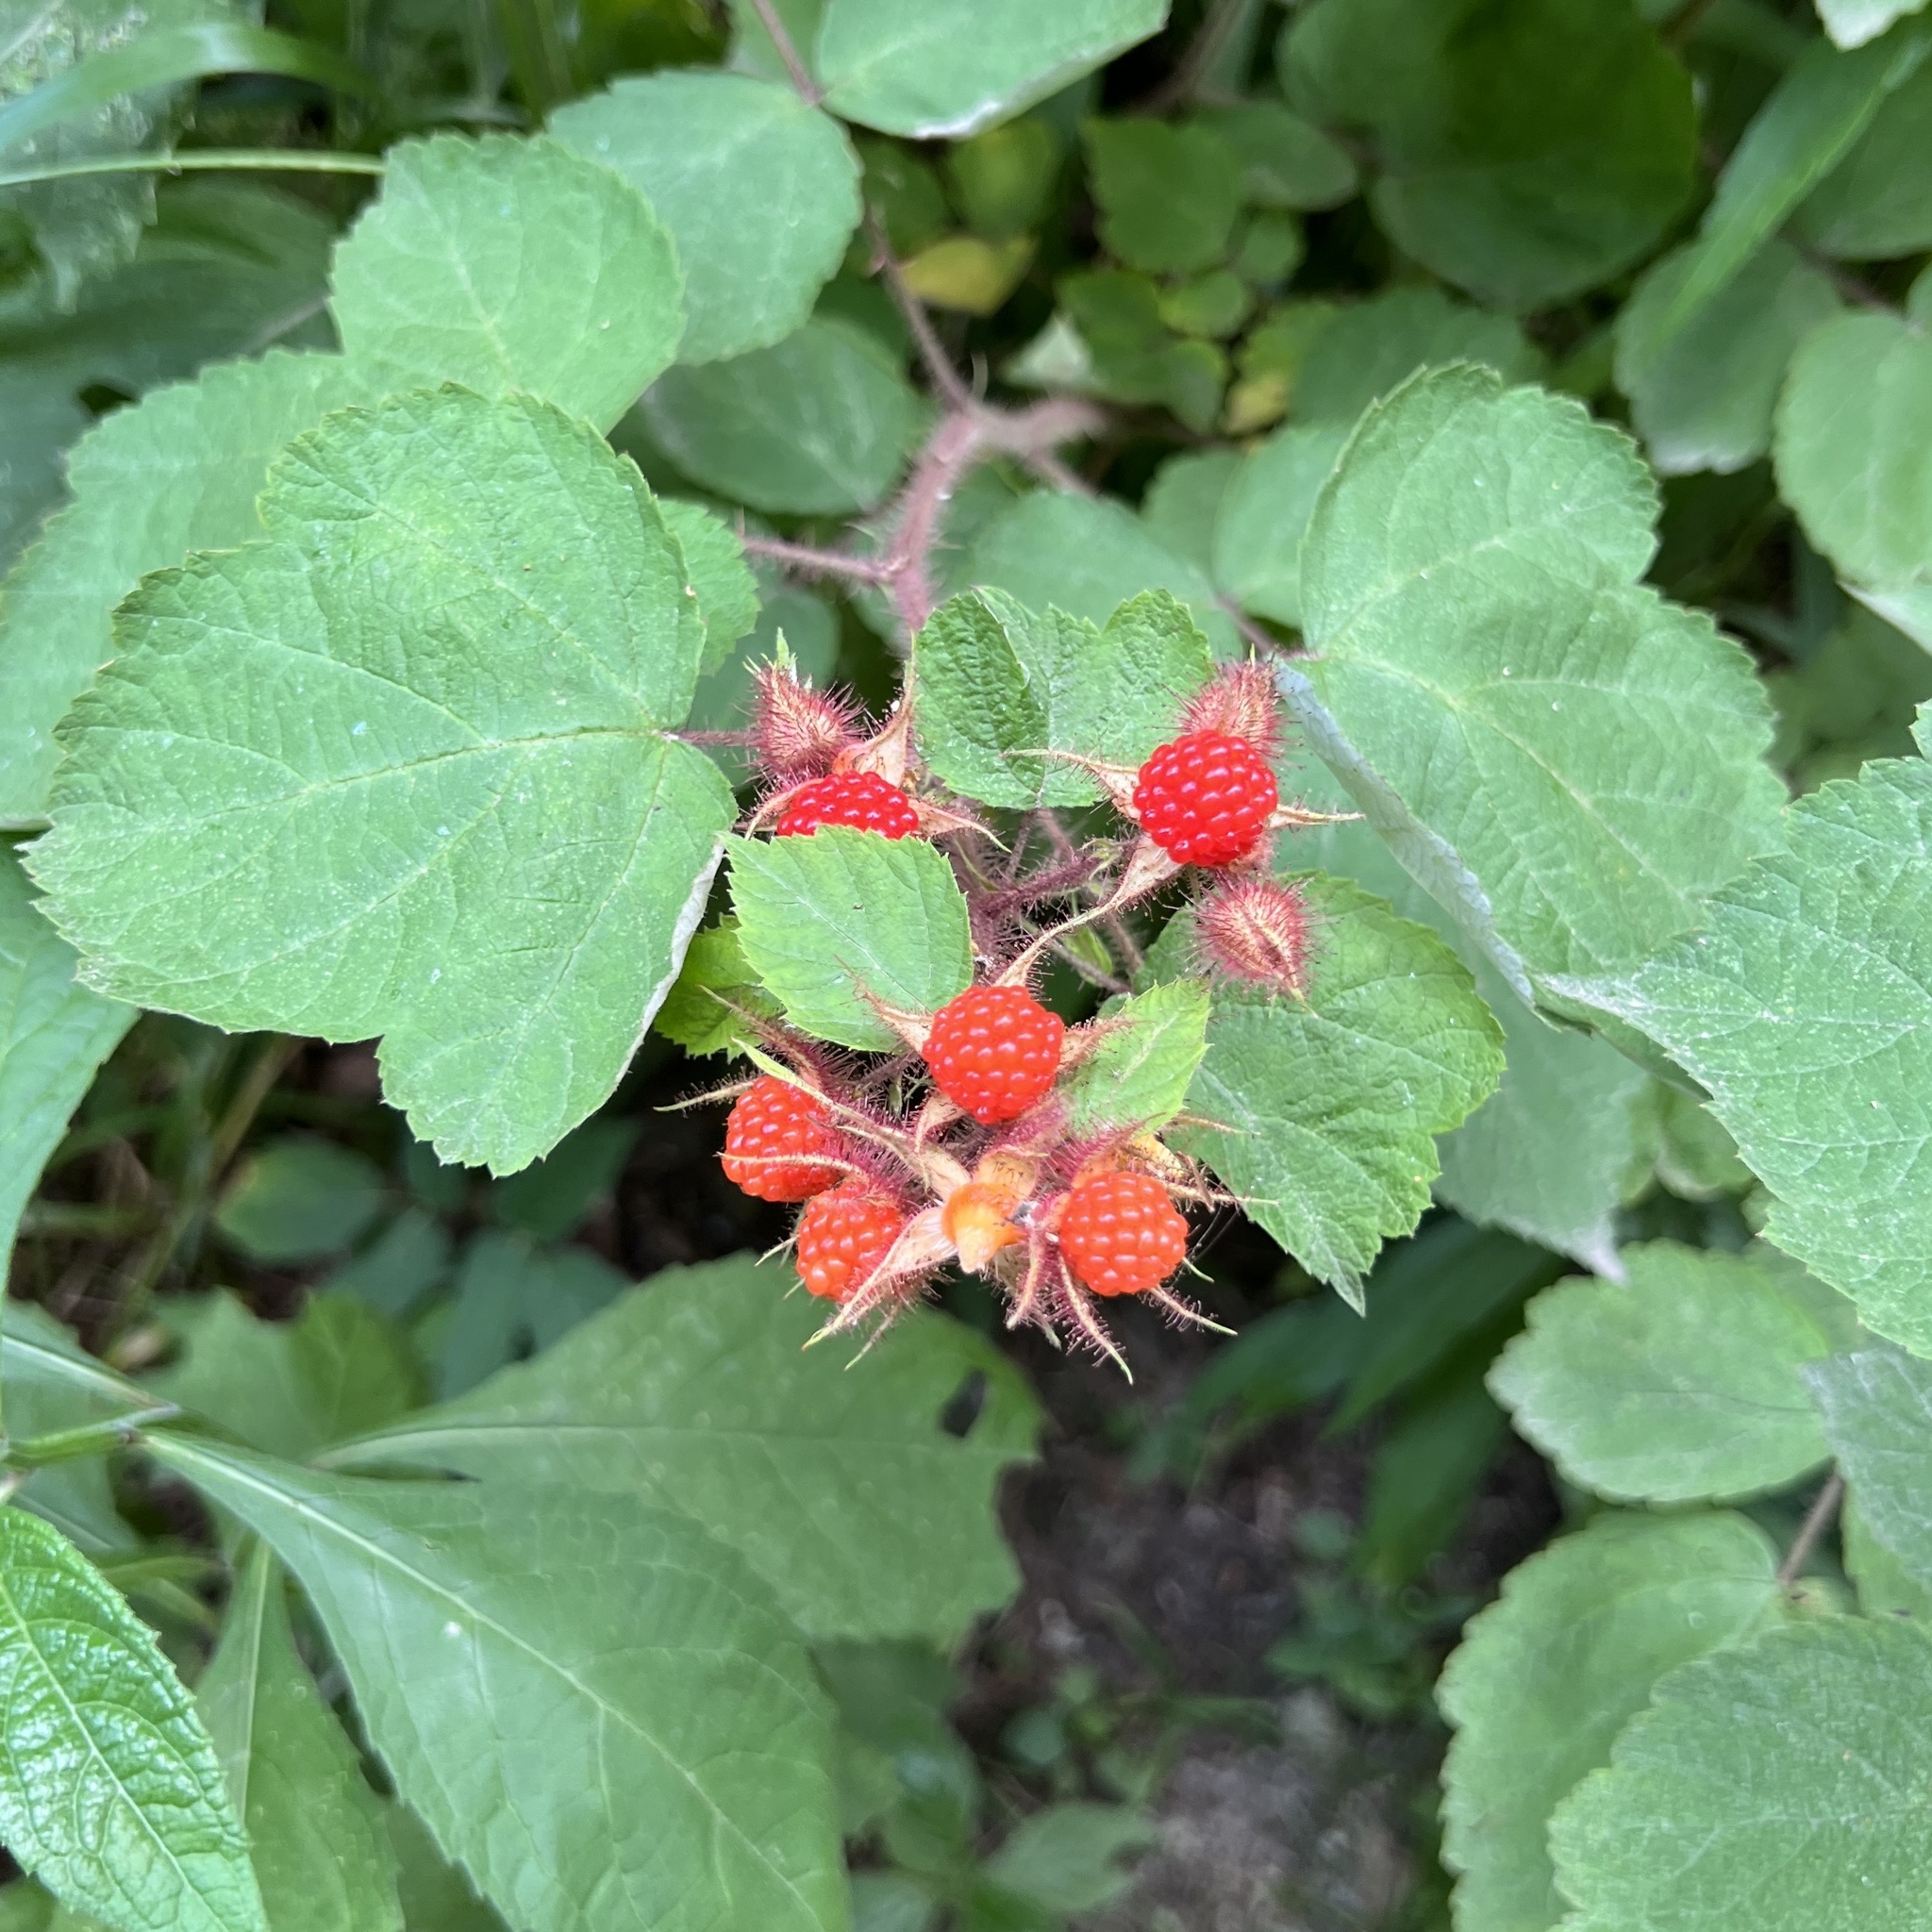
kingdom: Plantae
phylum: Tracheophyta
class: Magnoliopsida
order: Rosales
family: Rosaceae
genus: Rubus
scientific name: Rubus phoenicolasius
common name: Japanese wineberry
